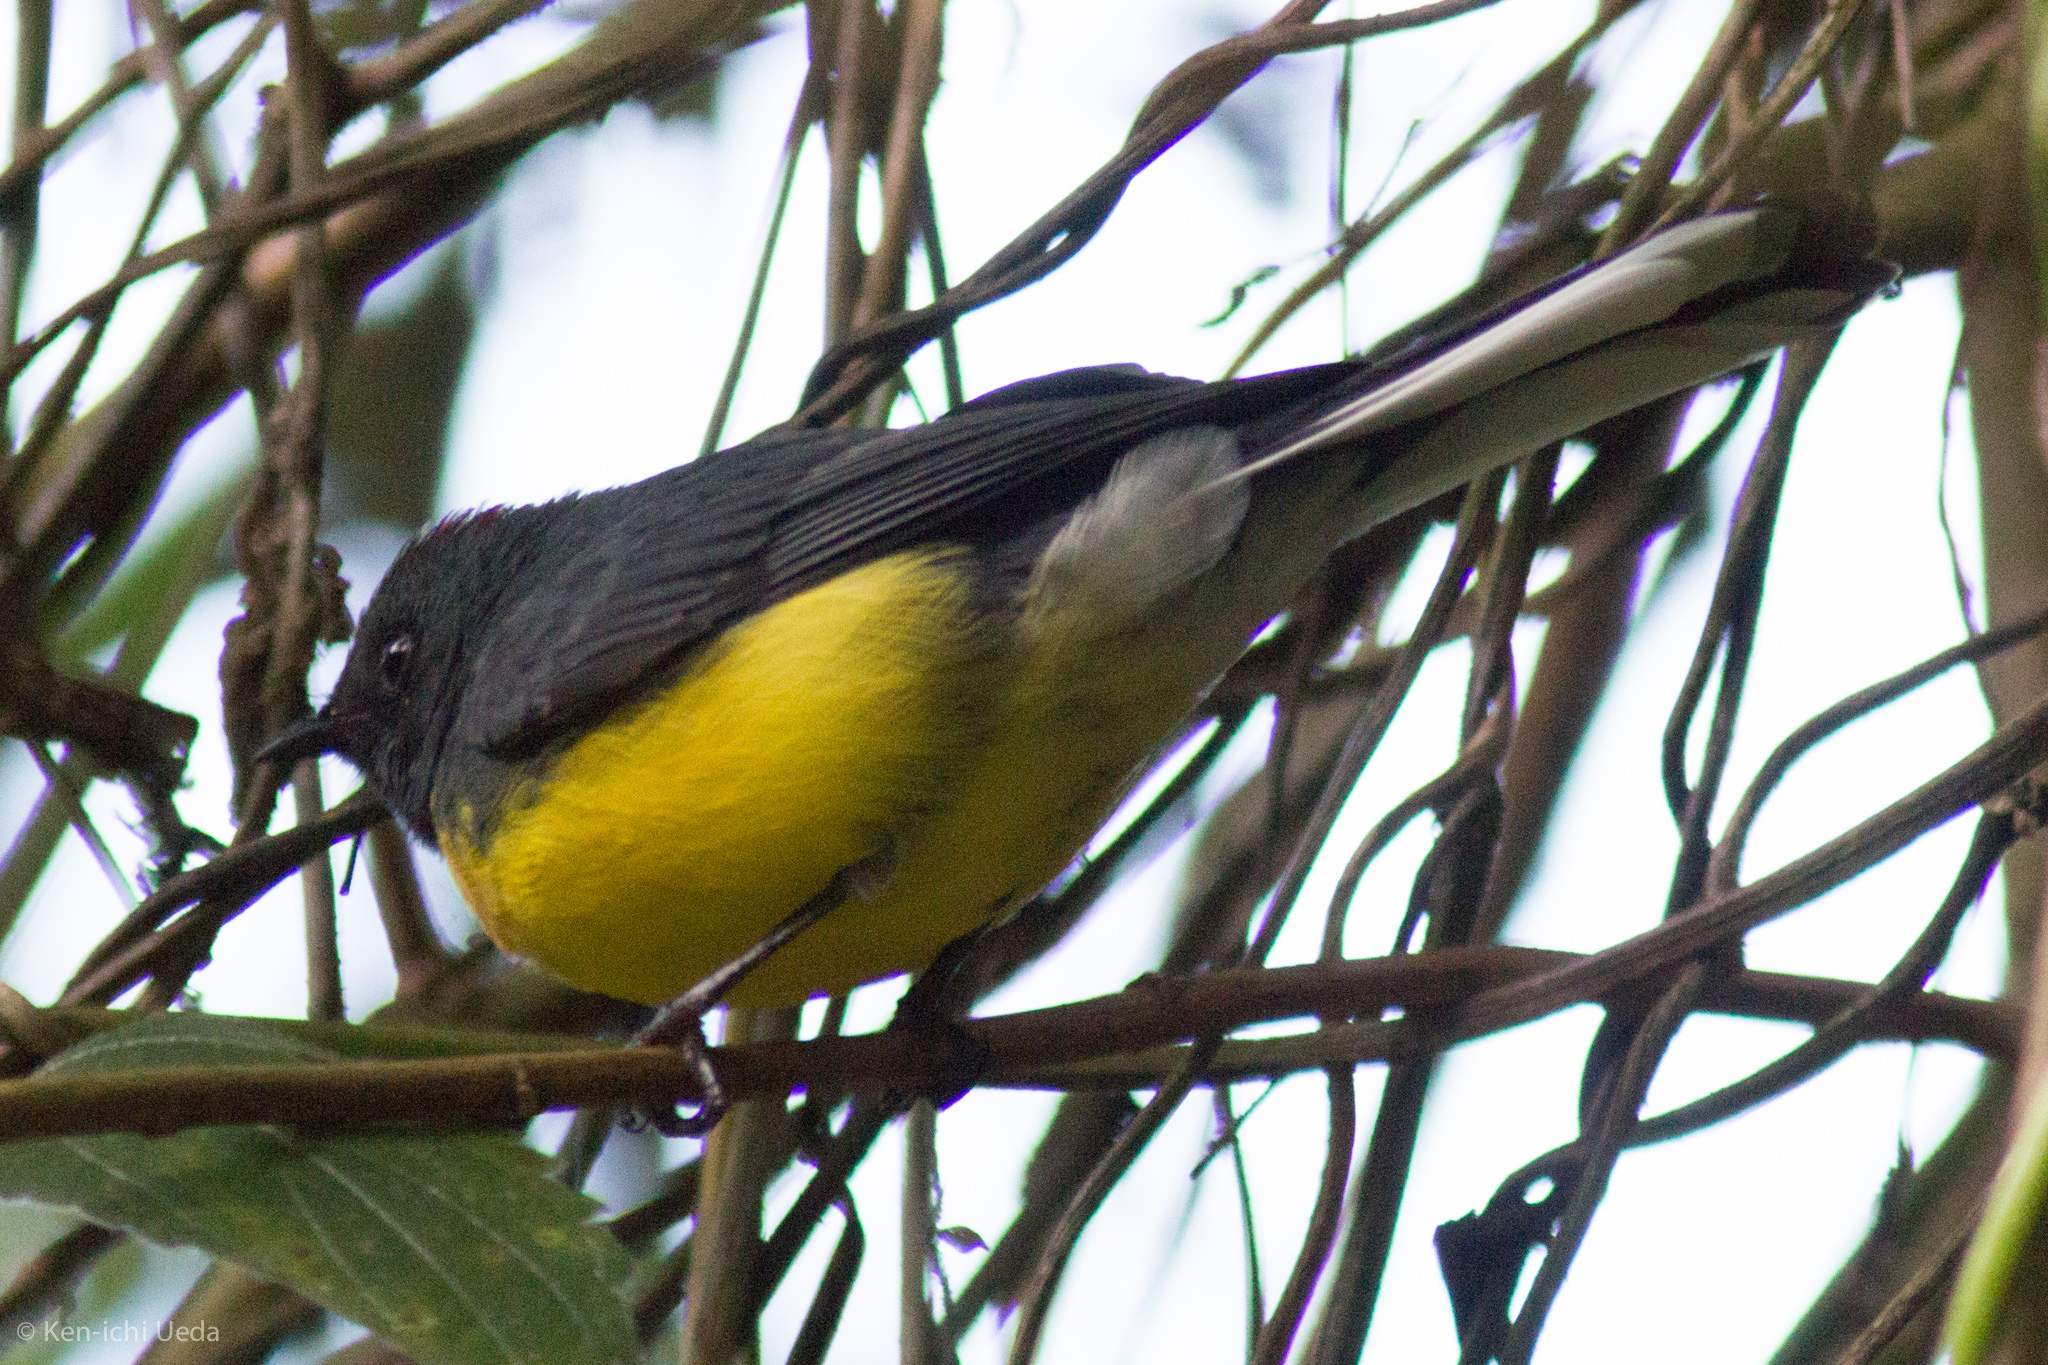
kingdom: Animalia
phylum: Chordata
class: Aves
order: Passeriformes
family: Parulidae
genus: Myioborus
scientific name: Myioborus miniatus
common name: Slate-throated redstart
